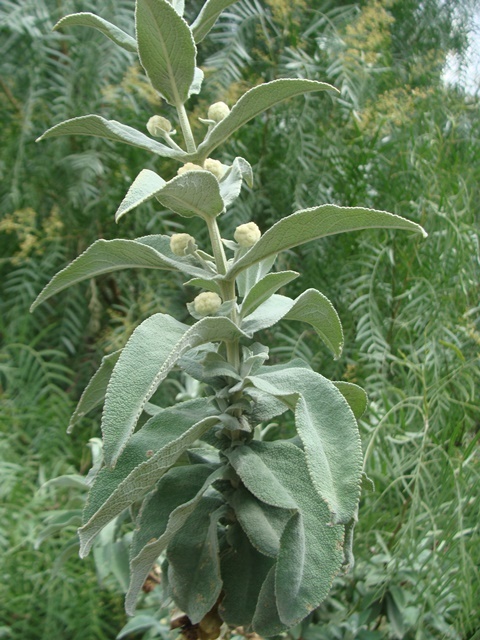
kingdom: Plantae
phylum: Tracheophyta
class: Magnoliopsida
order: Lamiales
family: Scrophulariaceae
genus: Buddleja
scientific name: Buddleja perfoliata
